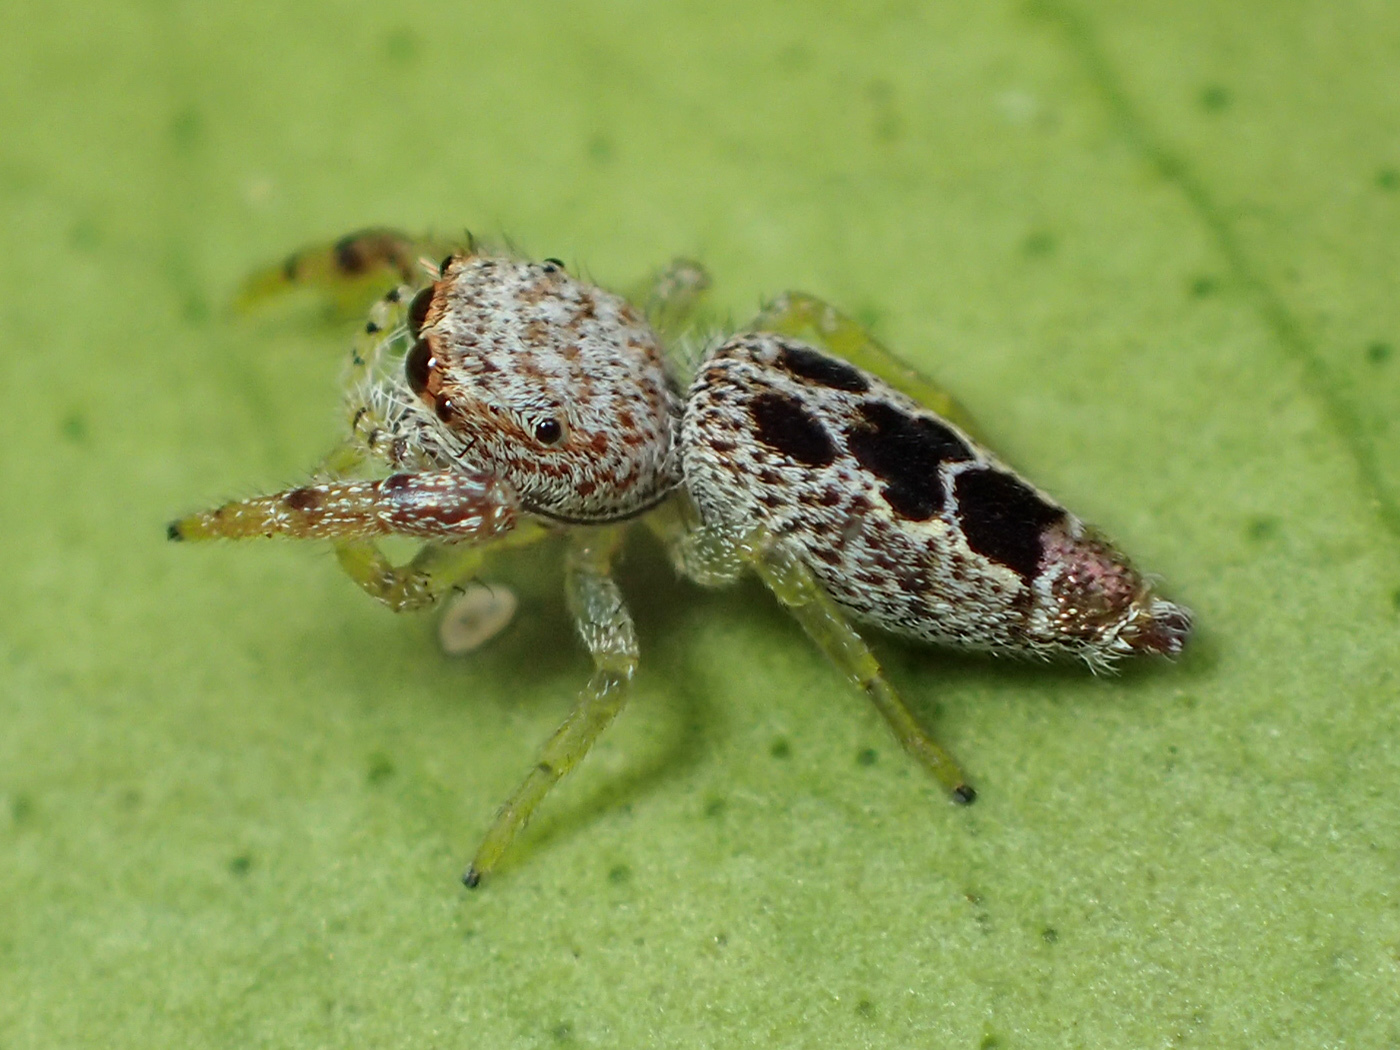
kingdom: Animalia
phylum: Arthropoda
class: Arachnida
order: Araneae
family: Salticidae
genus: Hentzia
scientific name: Hentzia vittata
